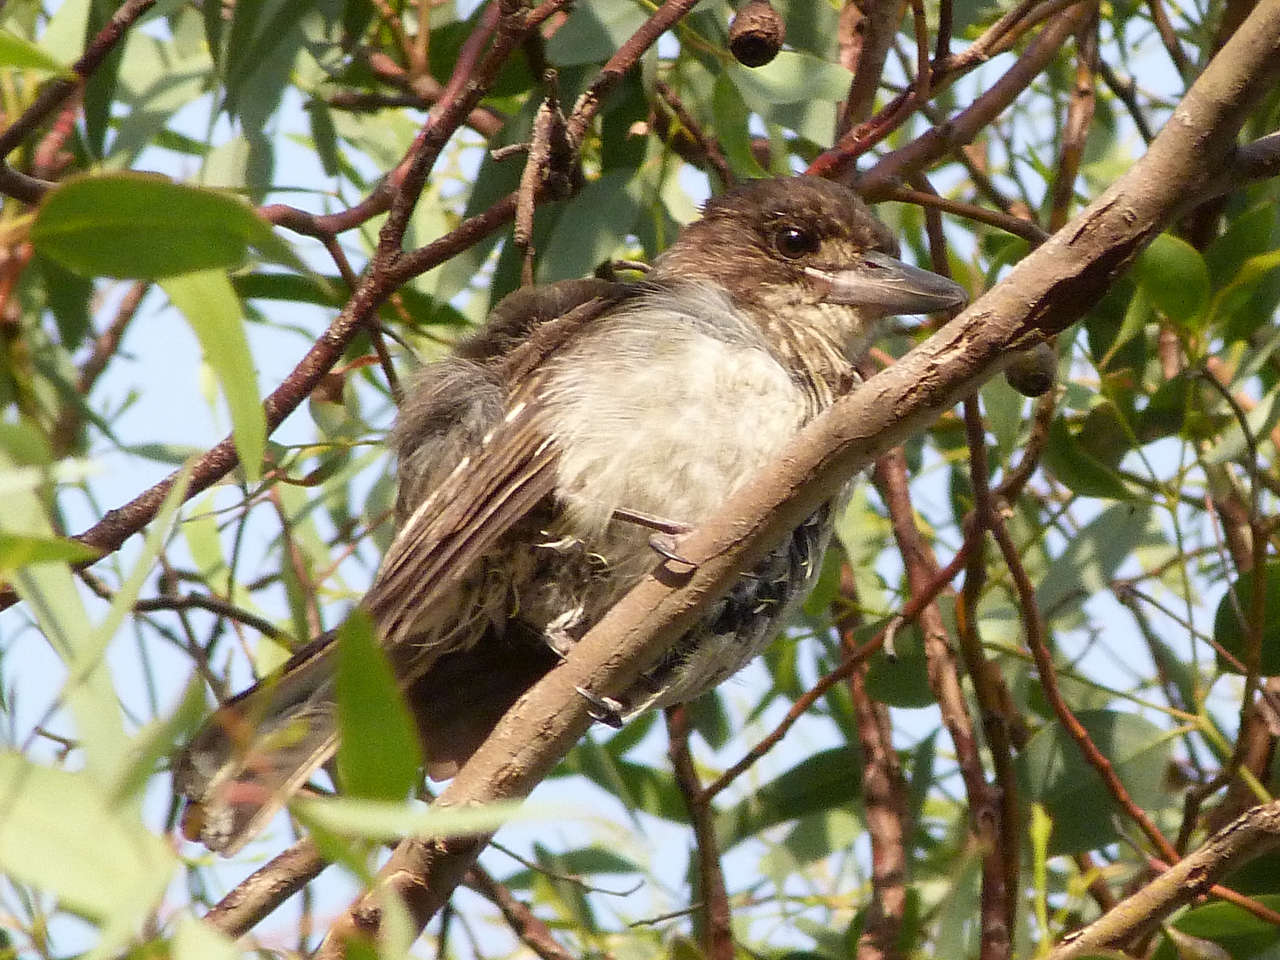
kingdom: Animalia
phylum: Chordata
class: Aves
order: Passeriformes
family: Cracticidae
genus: Cracticus
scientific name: Cracticus torquatus
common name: Grey butcherbird
